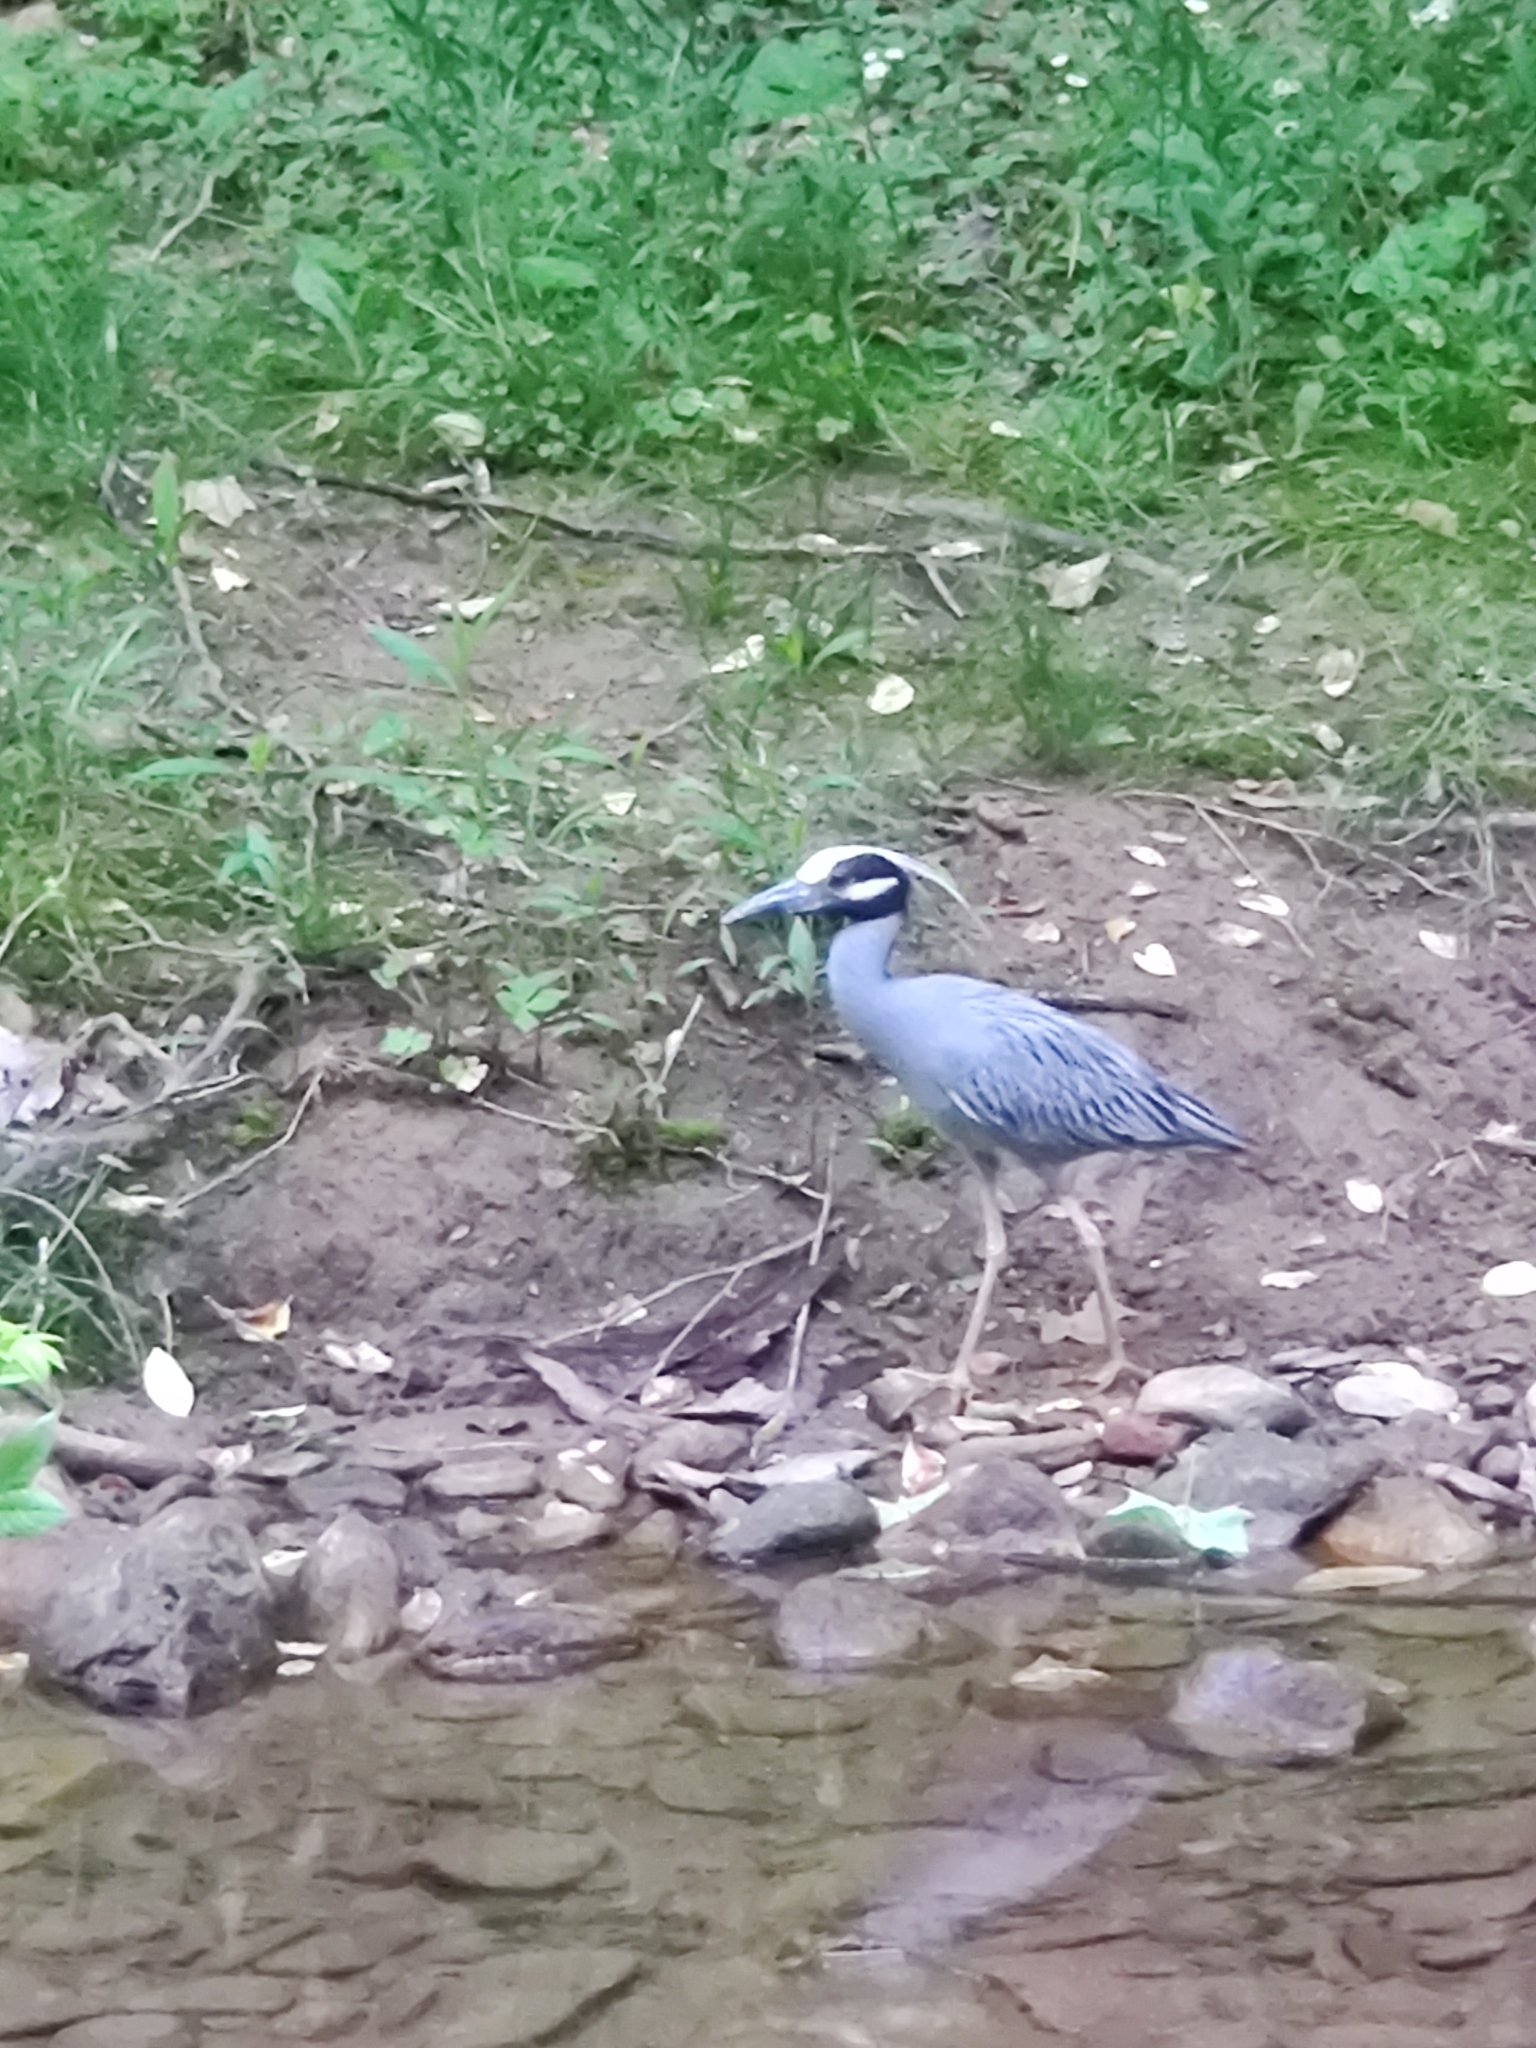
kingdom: Animalia
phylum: Chordata
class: Aves
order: Pelecaniformes
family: Ardeidae
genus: Nyctanassa
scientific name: Nyctanassa violacea
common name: Yellow-crowned night heron
